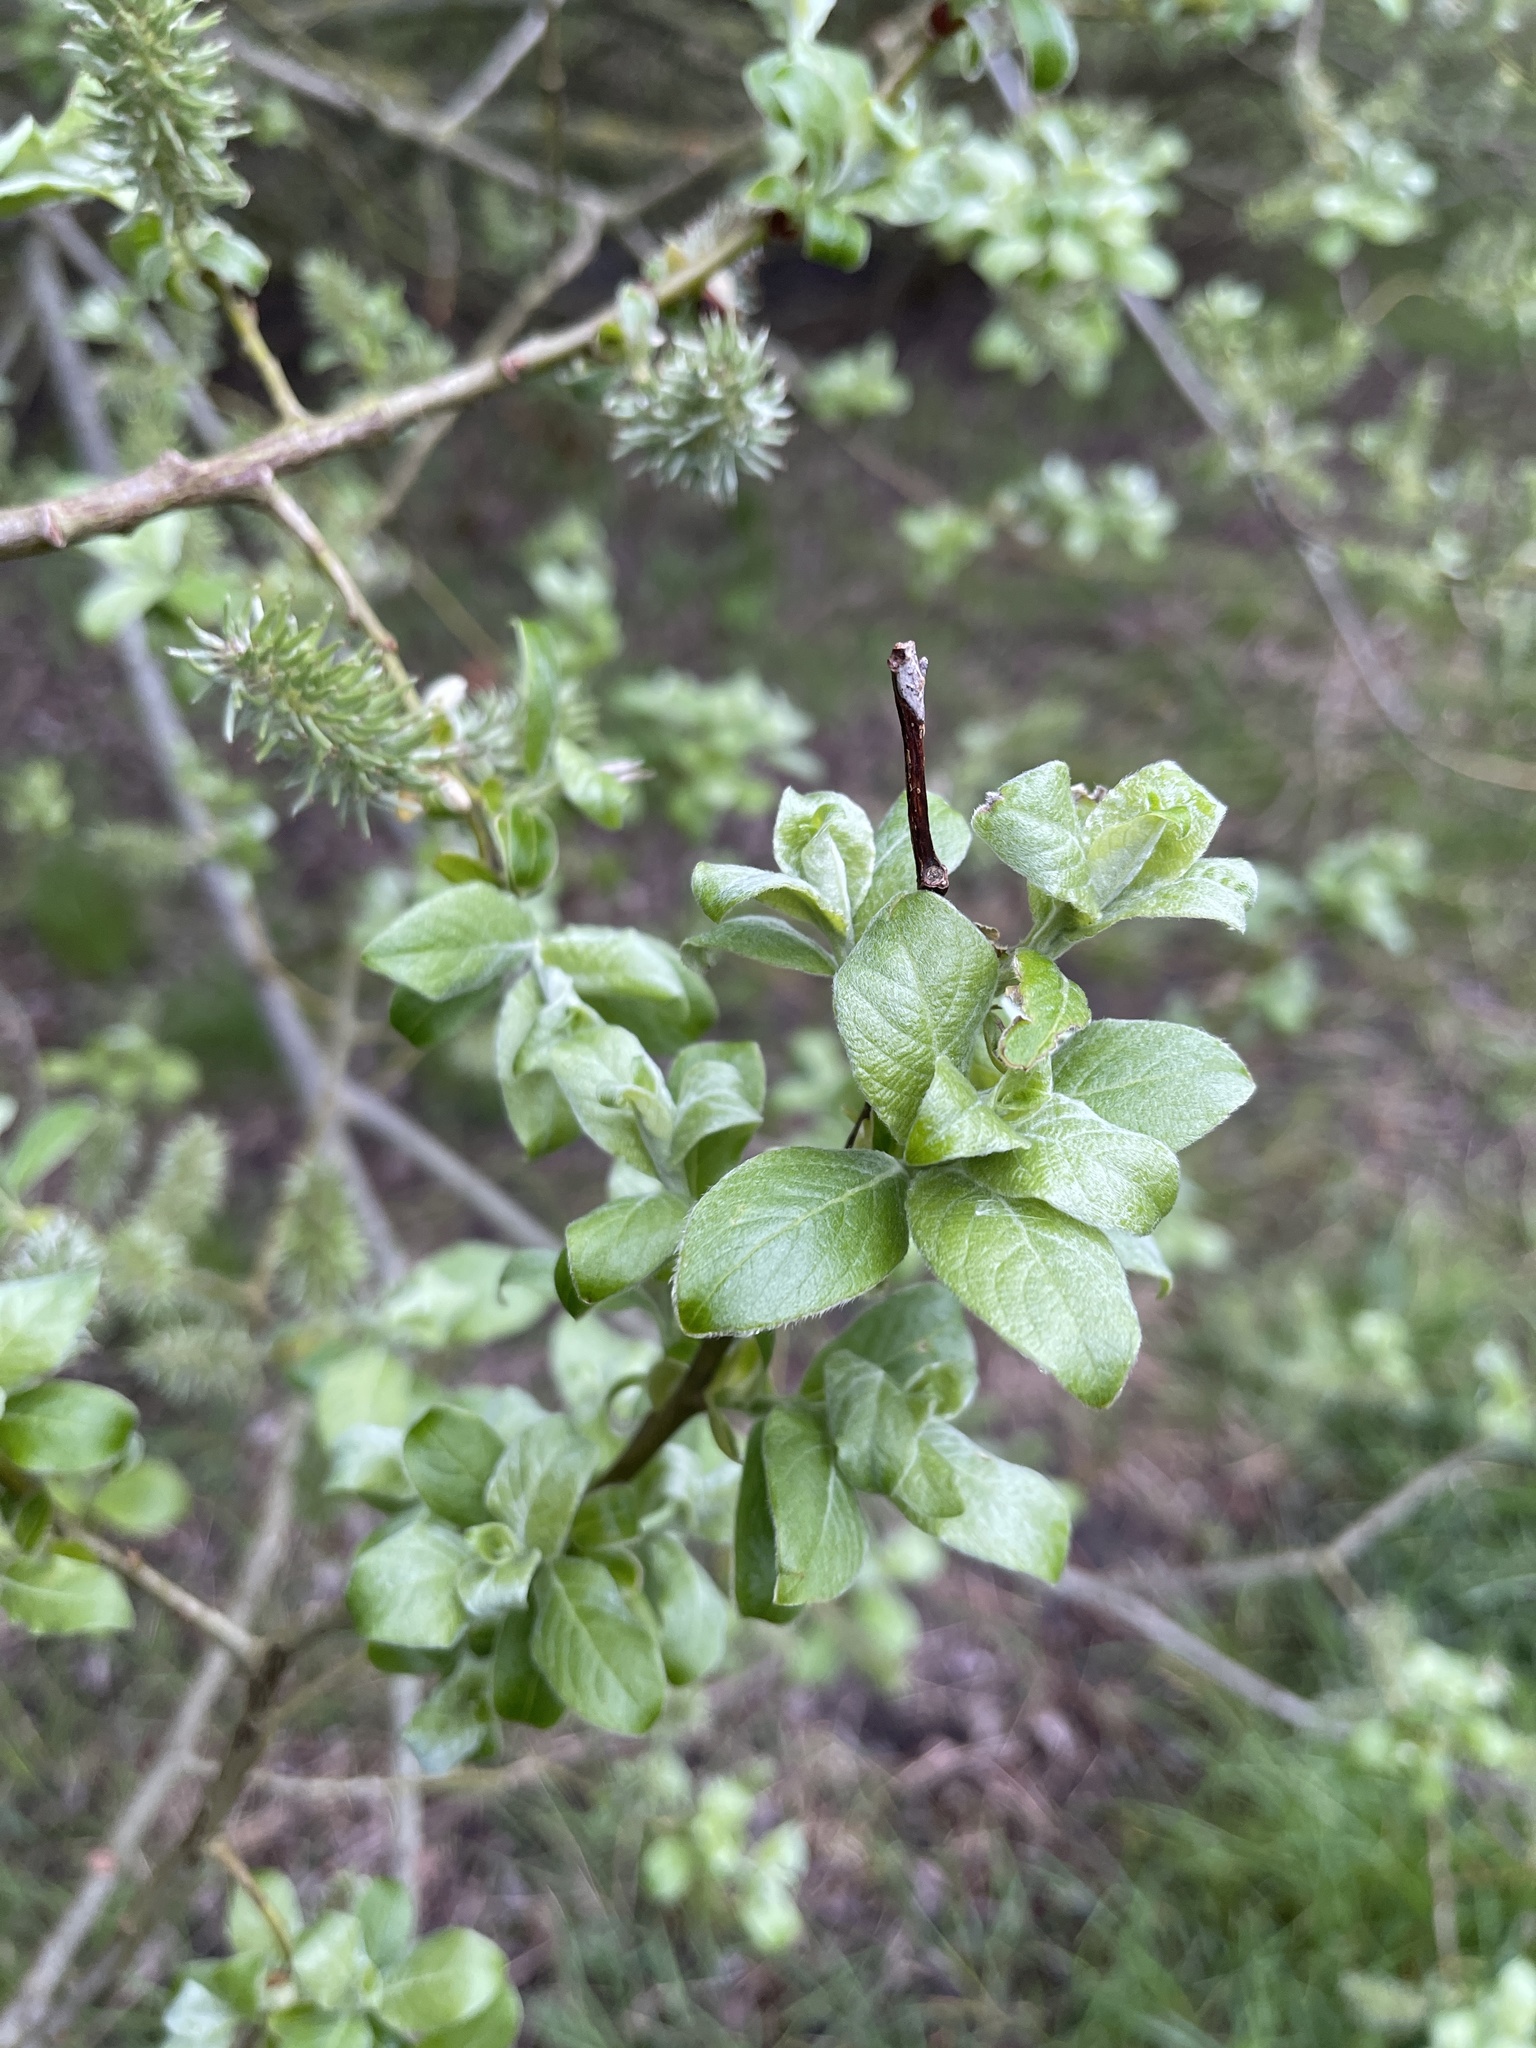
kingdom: Plantae
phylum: Tracheophyta
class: Magnoliopsida
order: Malpighiales
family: Salicaceae
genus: Salix
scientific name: Salix caprea
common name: Goat willow
